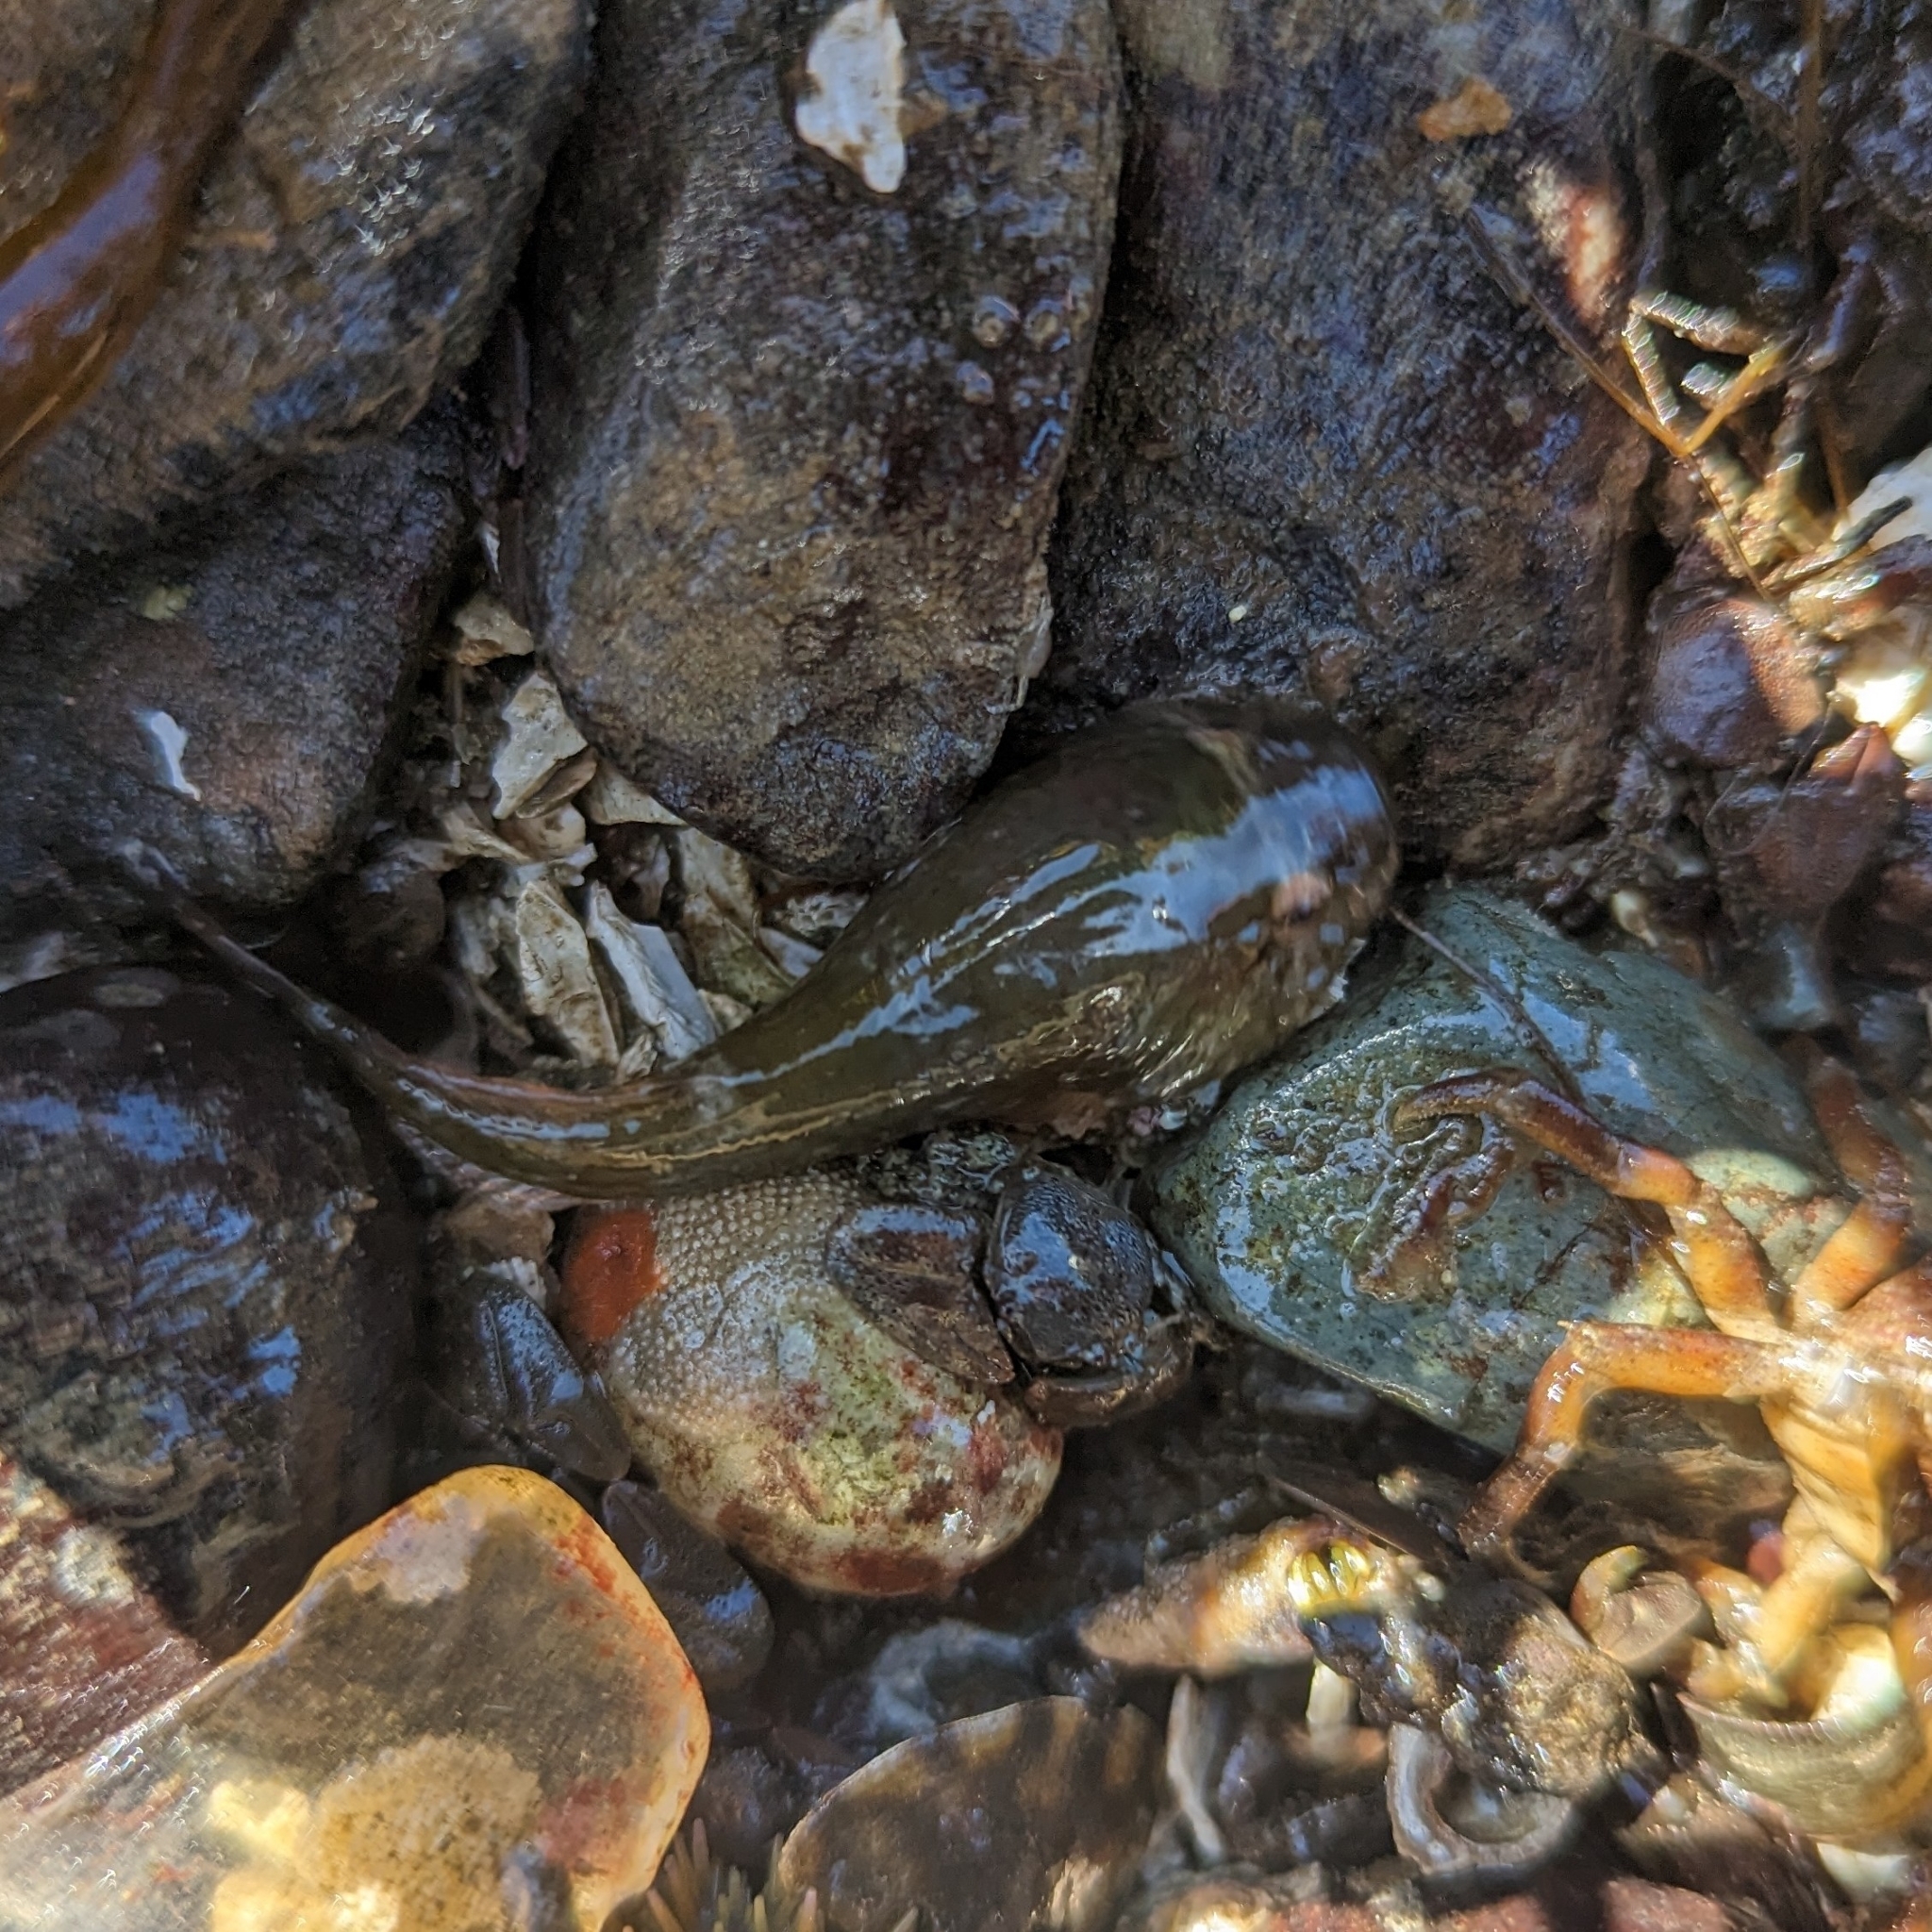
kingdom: Animalia
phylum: Chordata
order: Gobiesociformes
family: Gobiesocidae
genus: Gobiesox
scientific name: Gobiesox maeandricus
